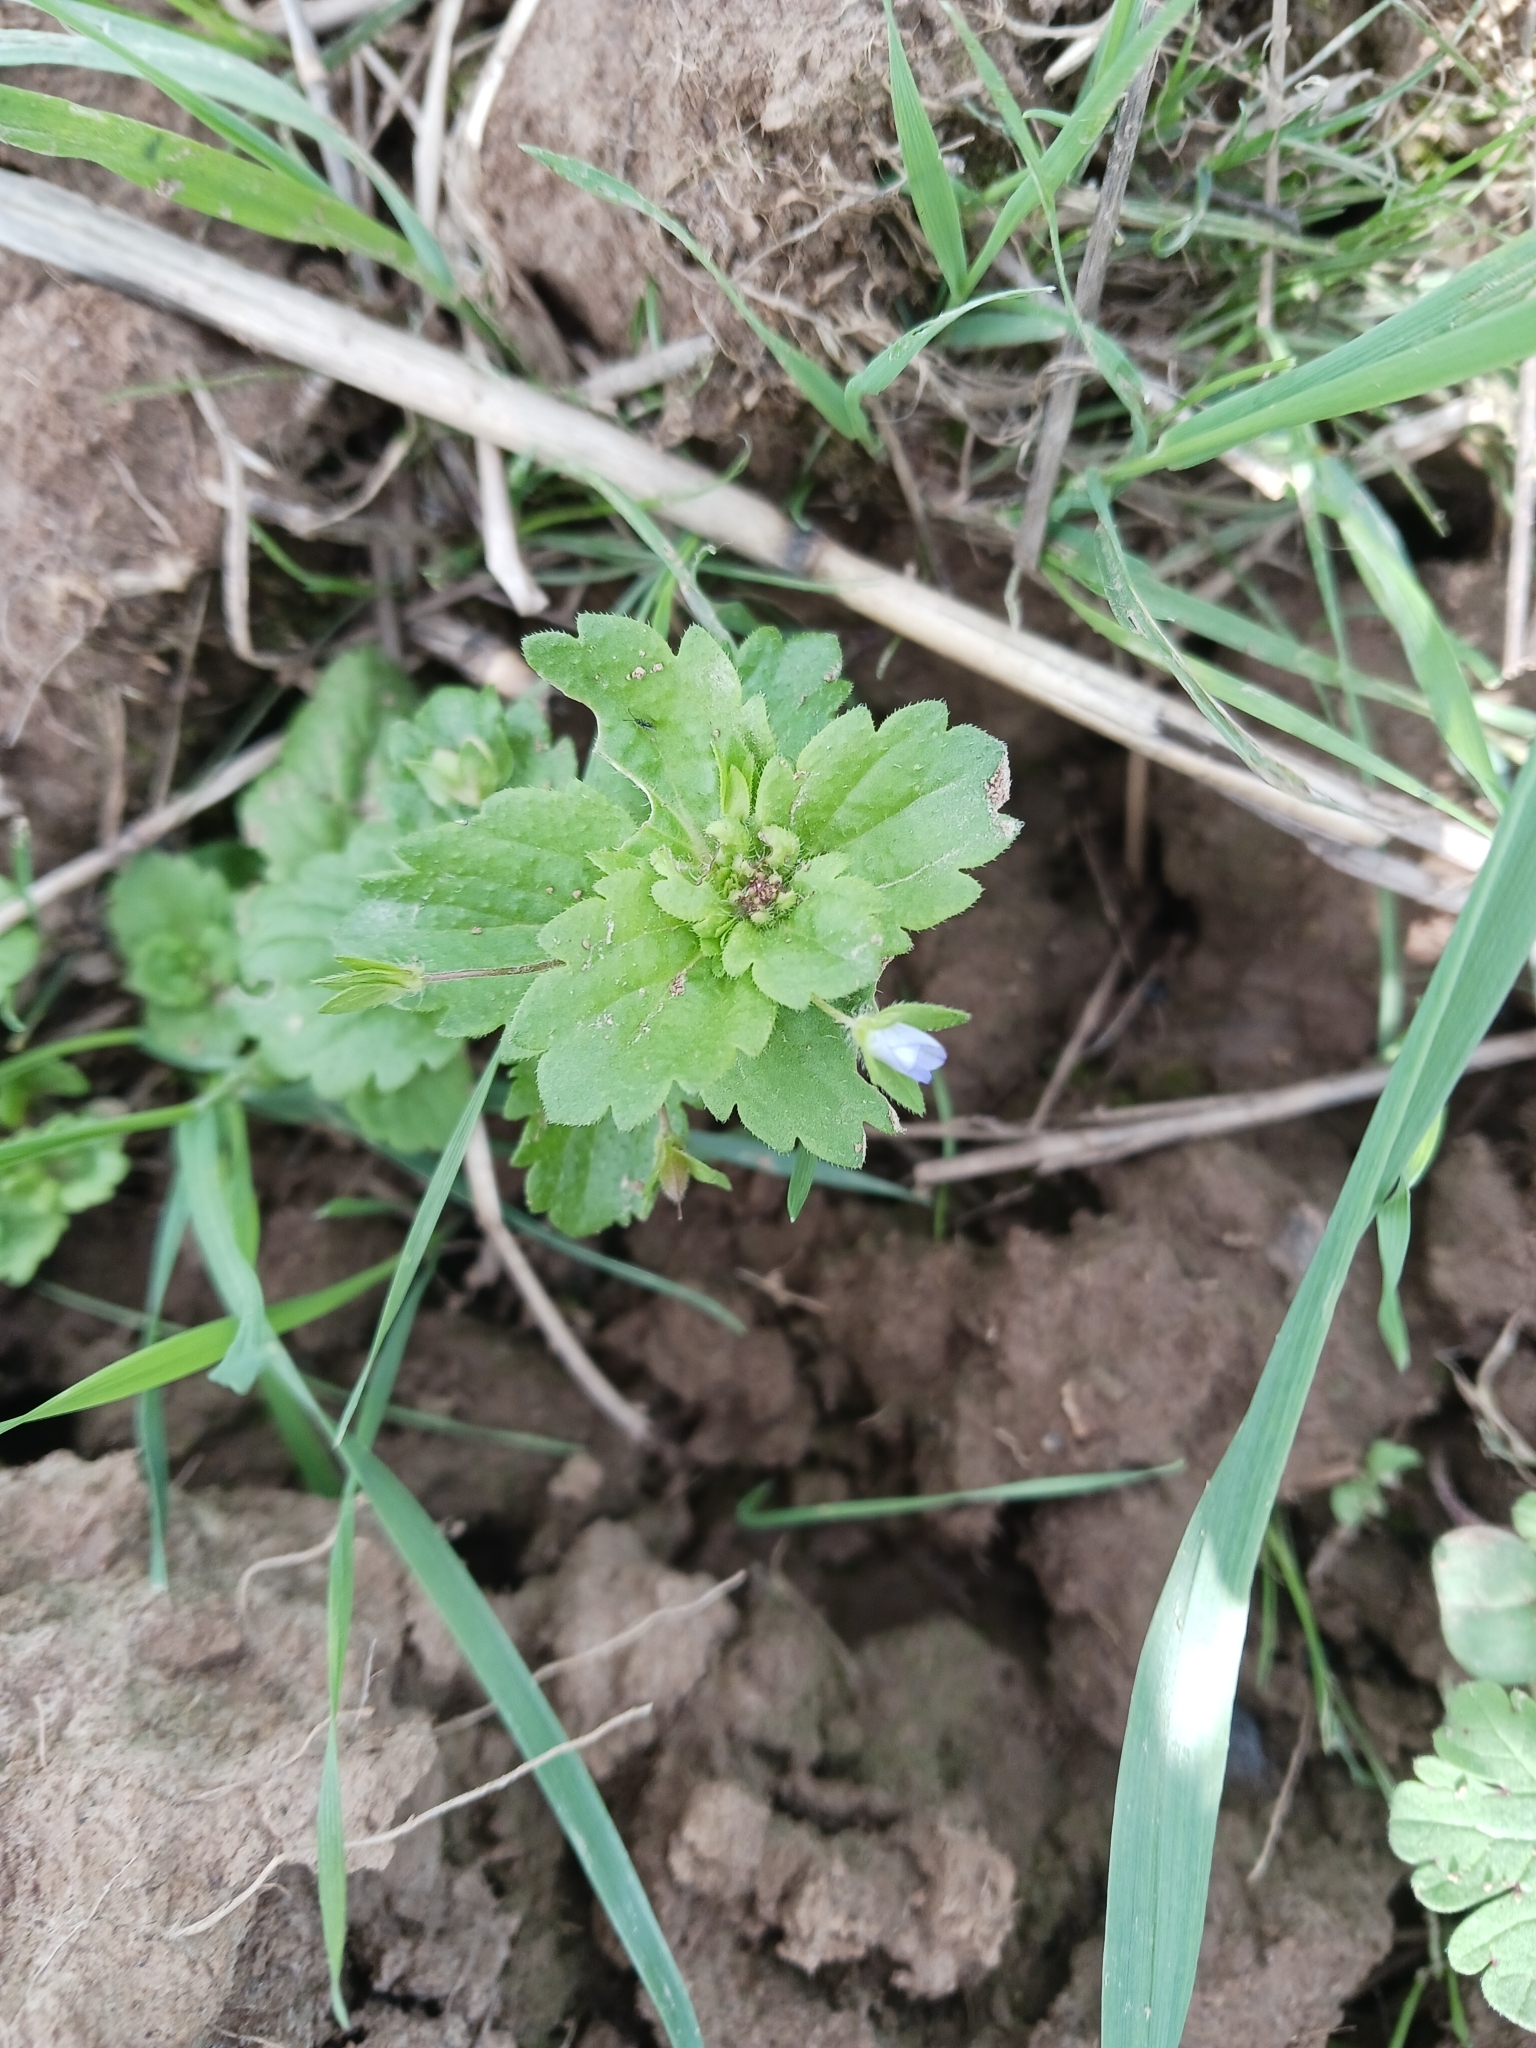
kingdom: Plantae
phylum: Tracheophyta
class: Magnoliopsida
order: Lamiales
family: Plantaginaceae
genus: Veronica
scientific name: Veronica persica
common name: Common field-speedwell
